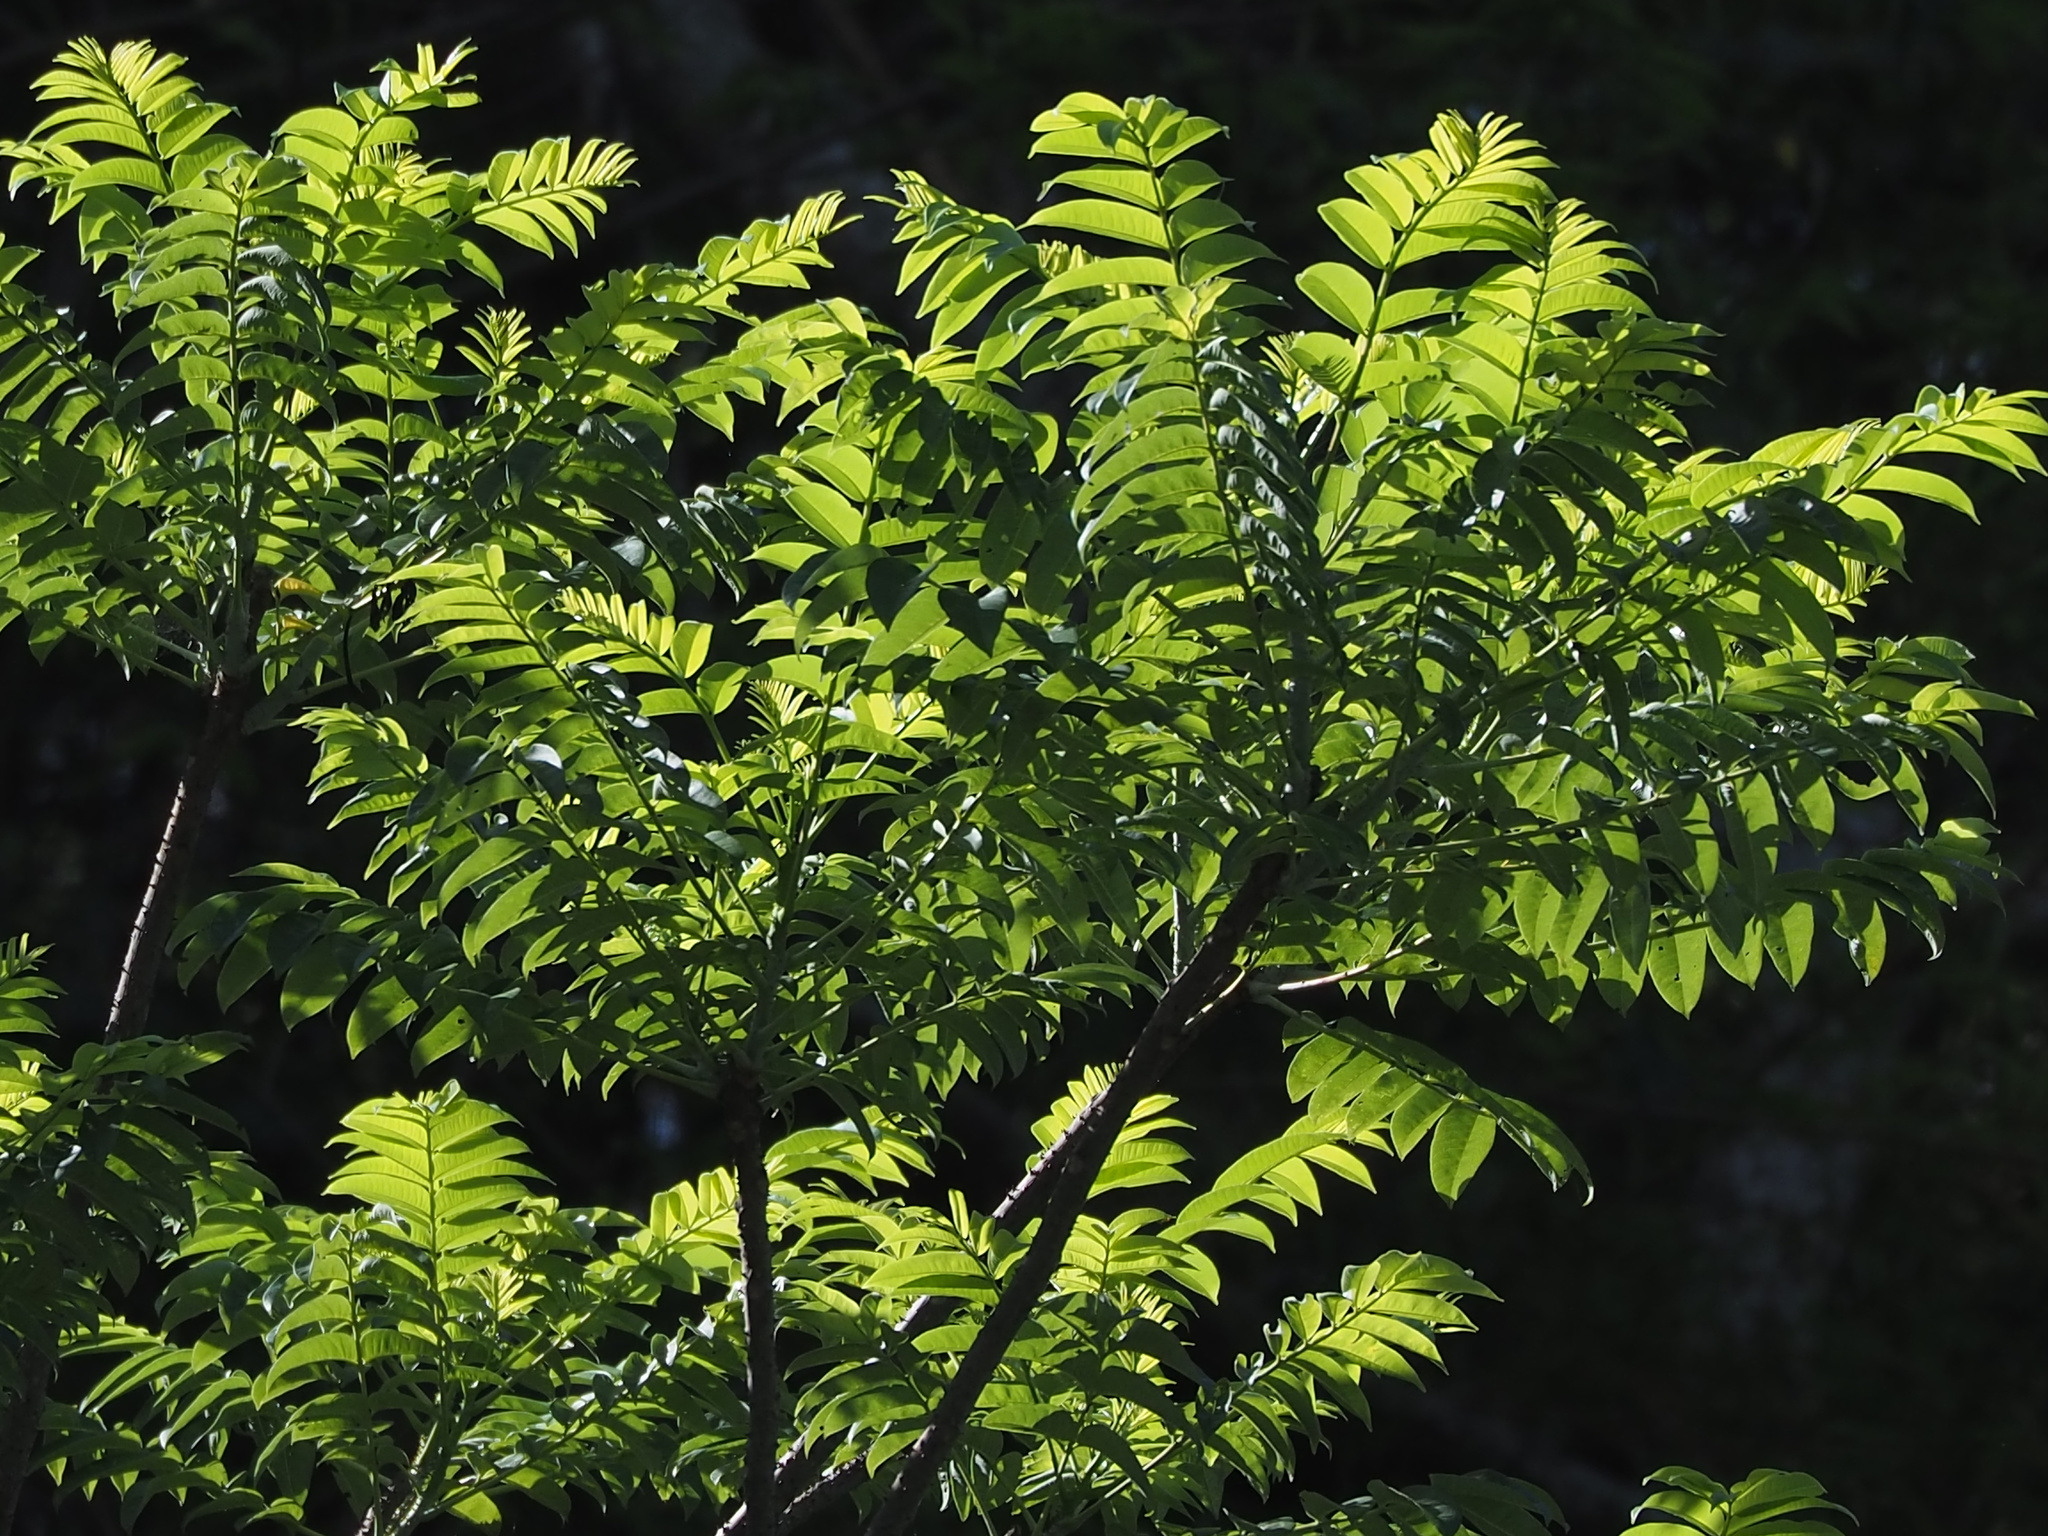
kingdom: Plantae
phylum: Tracheophyta
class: Magnoliopsida
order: Sapindales
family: Rutaceae
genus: Zanthoxylum
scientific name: Zanthoxylum ailanthoides
